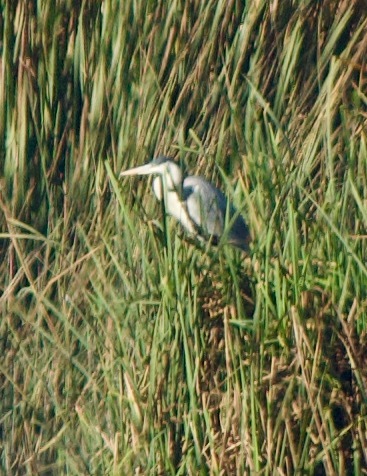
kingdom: Animalia
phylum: Chordata
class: Aves
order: Pelecaniformes
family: Ardeidae
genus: Ardea
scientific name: Ardea cocoi
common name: Cocoi heron
